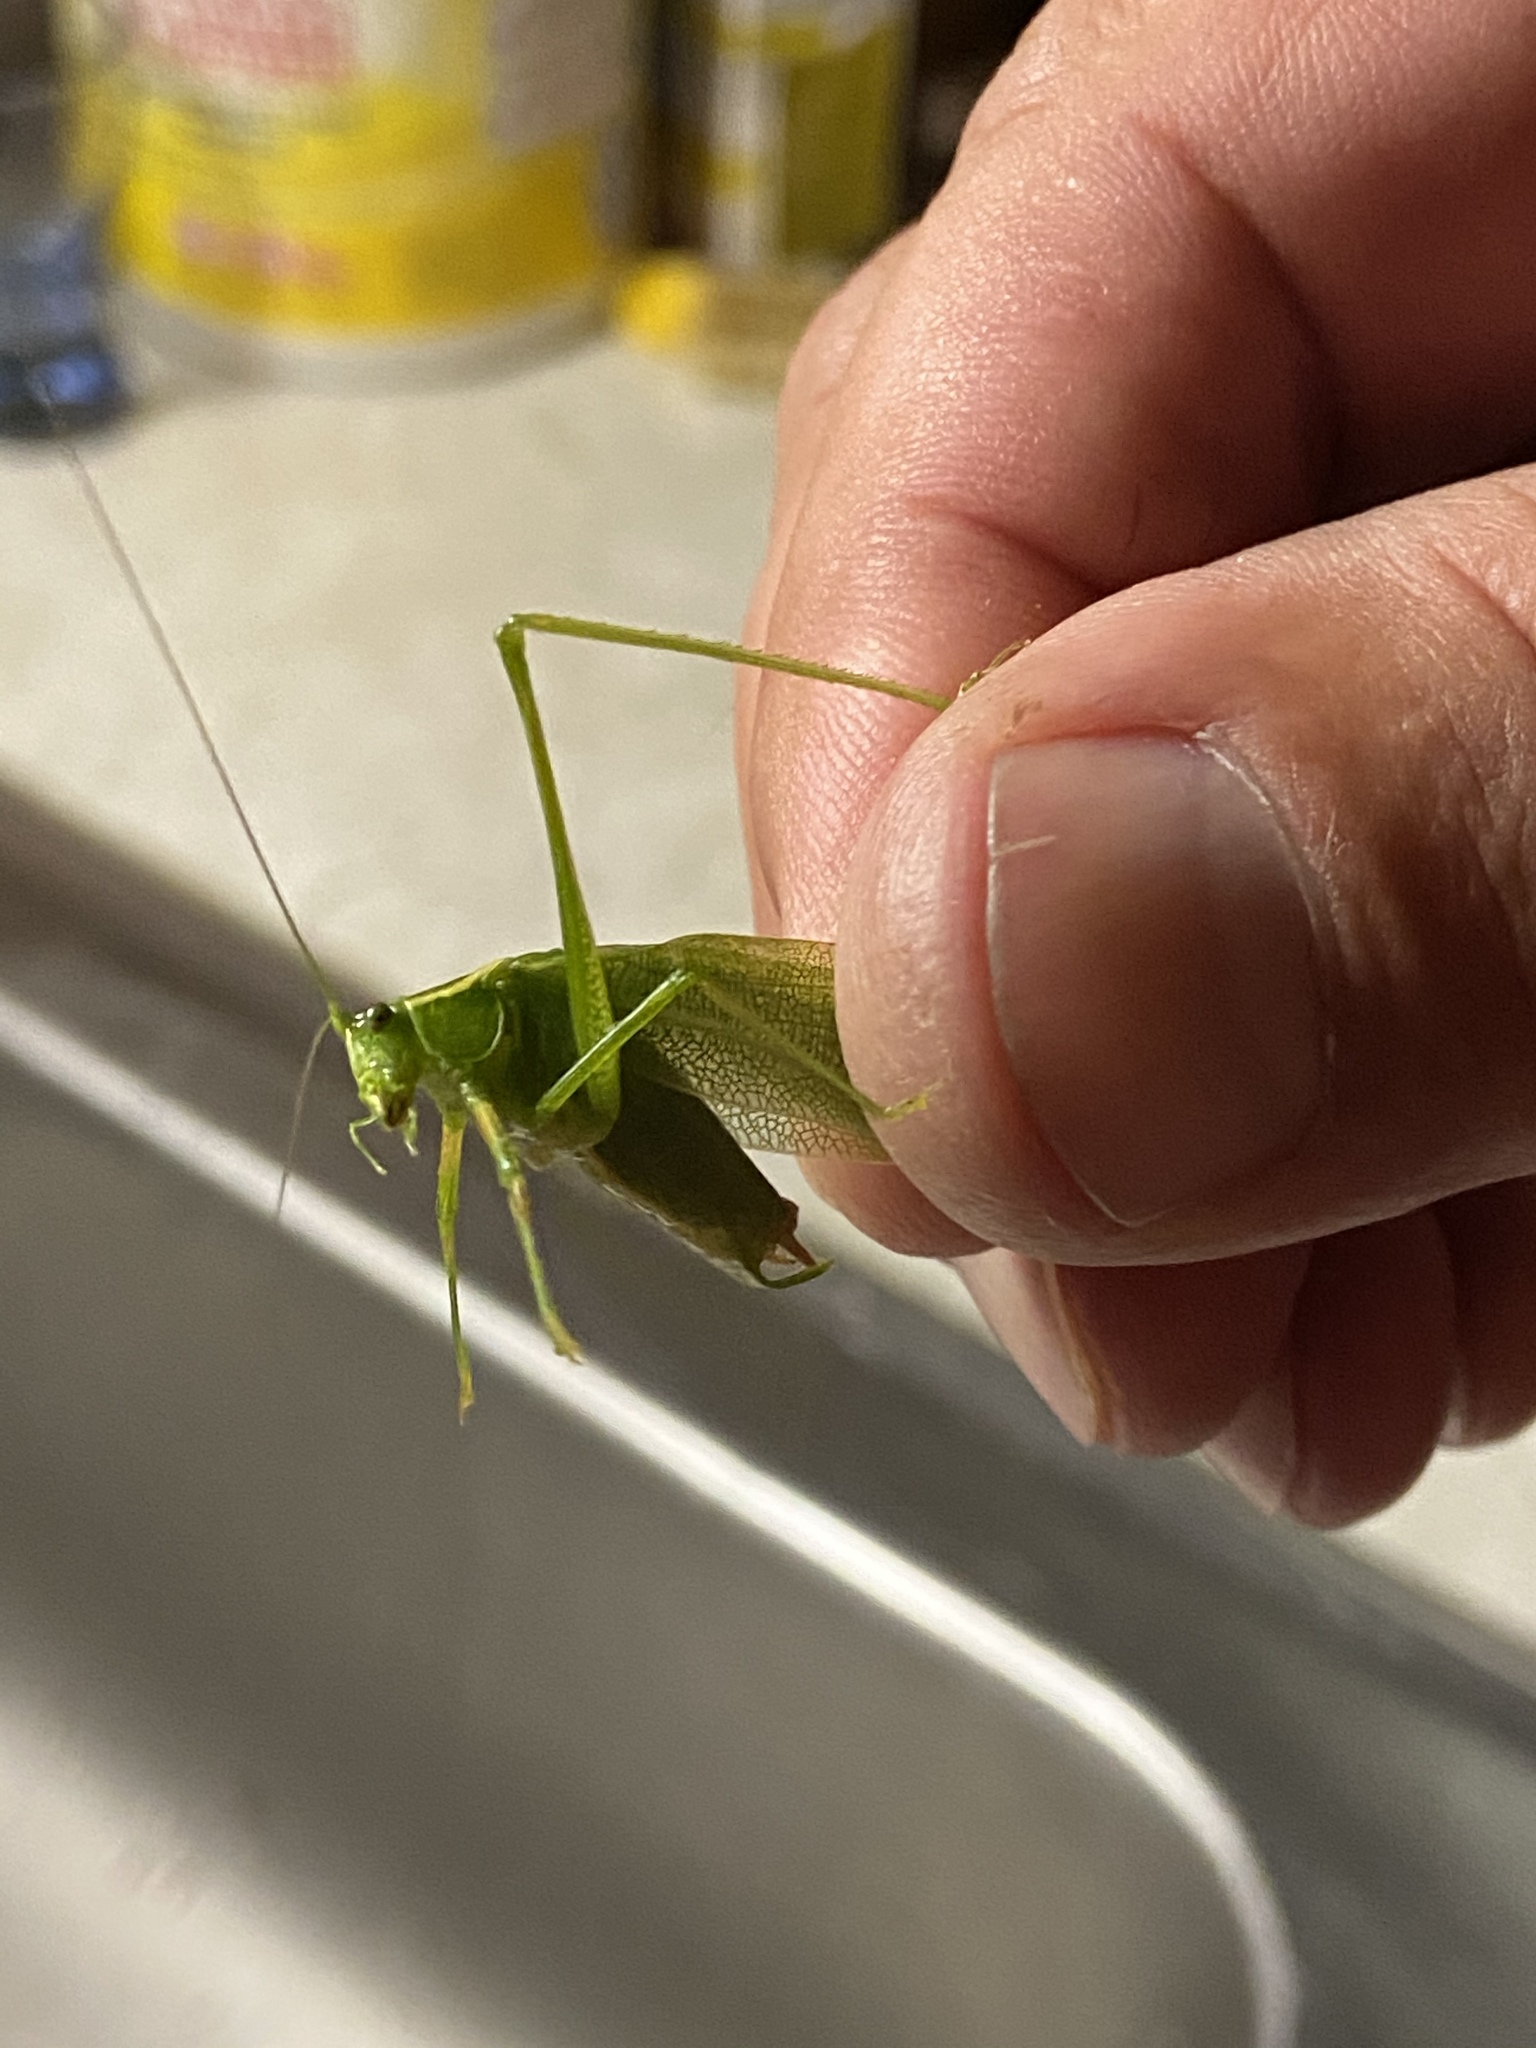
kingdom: Animalia
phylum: Arthropoda
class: Insecta
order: Orthoptera
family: Tettigoniidae
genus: Scudderia
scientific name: Scudderia septentrionalis
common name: Northern bush-katydid
